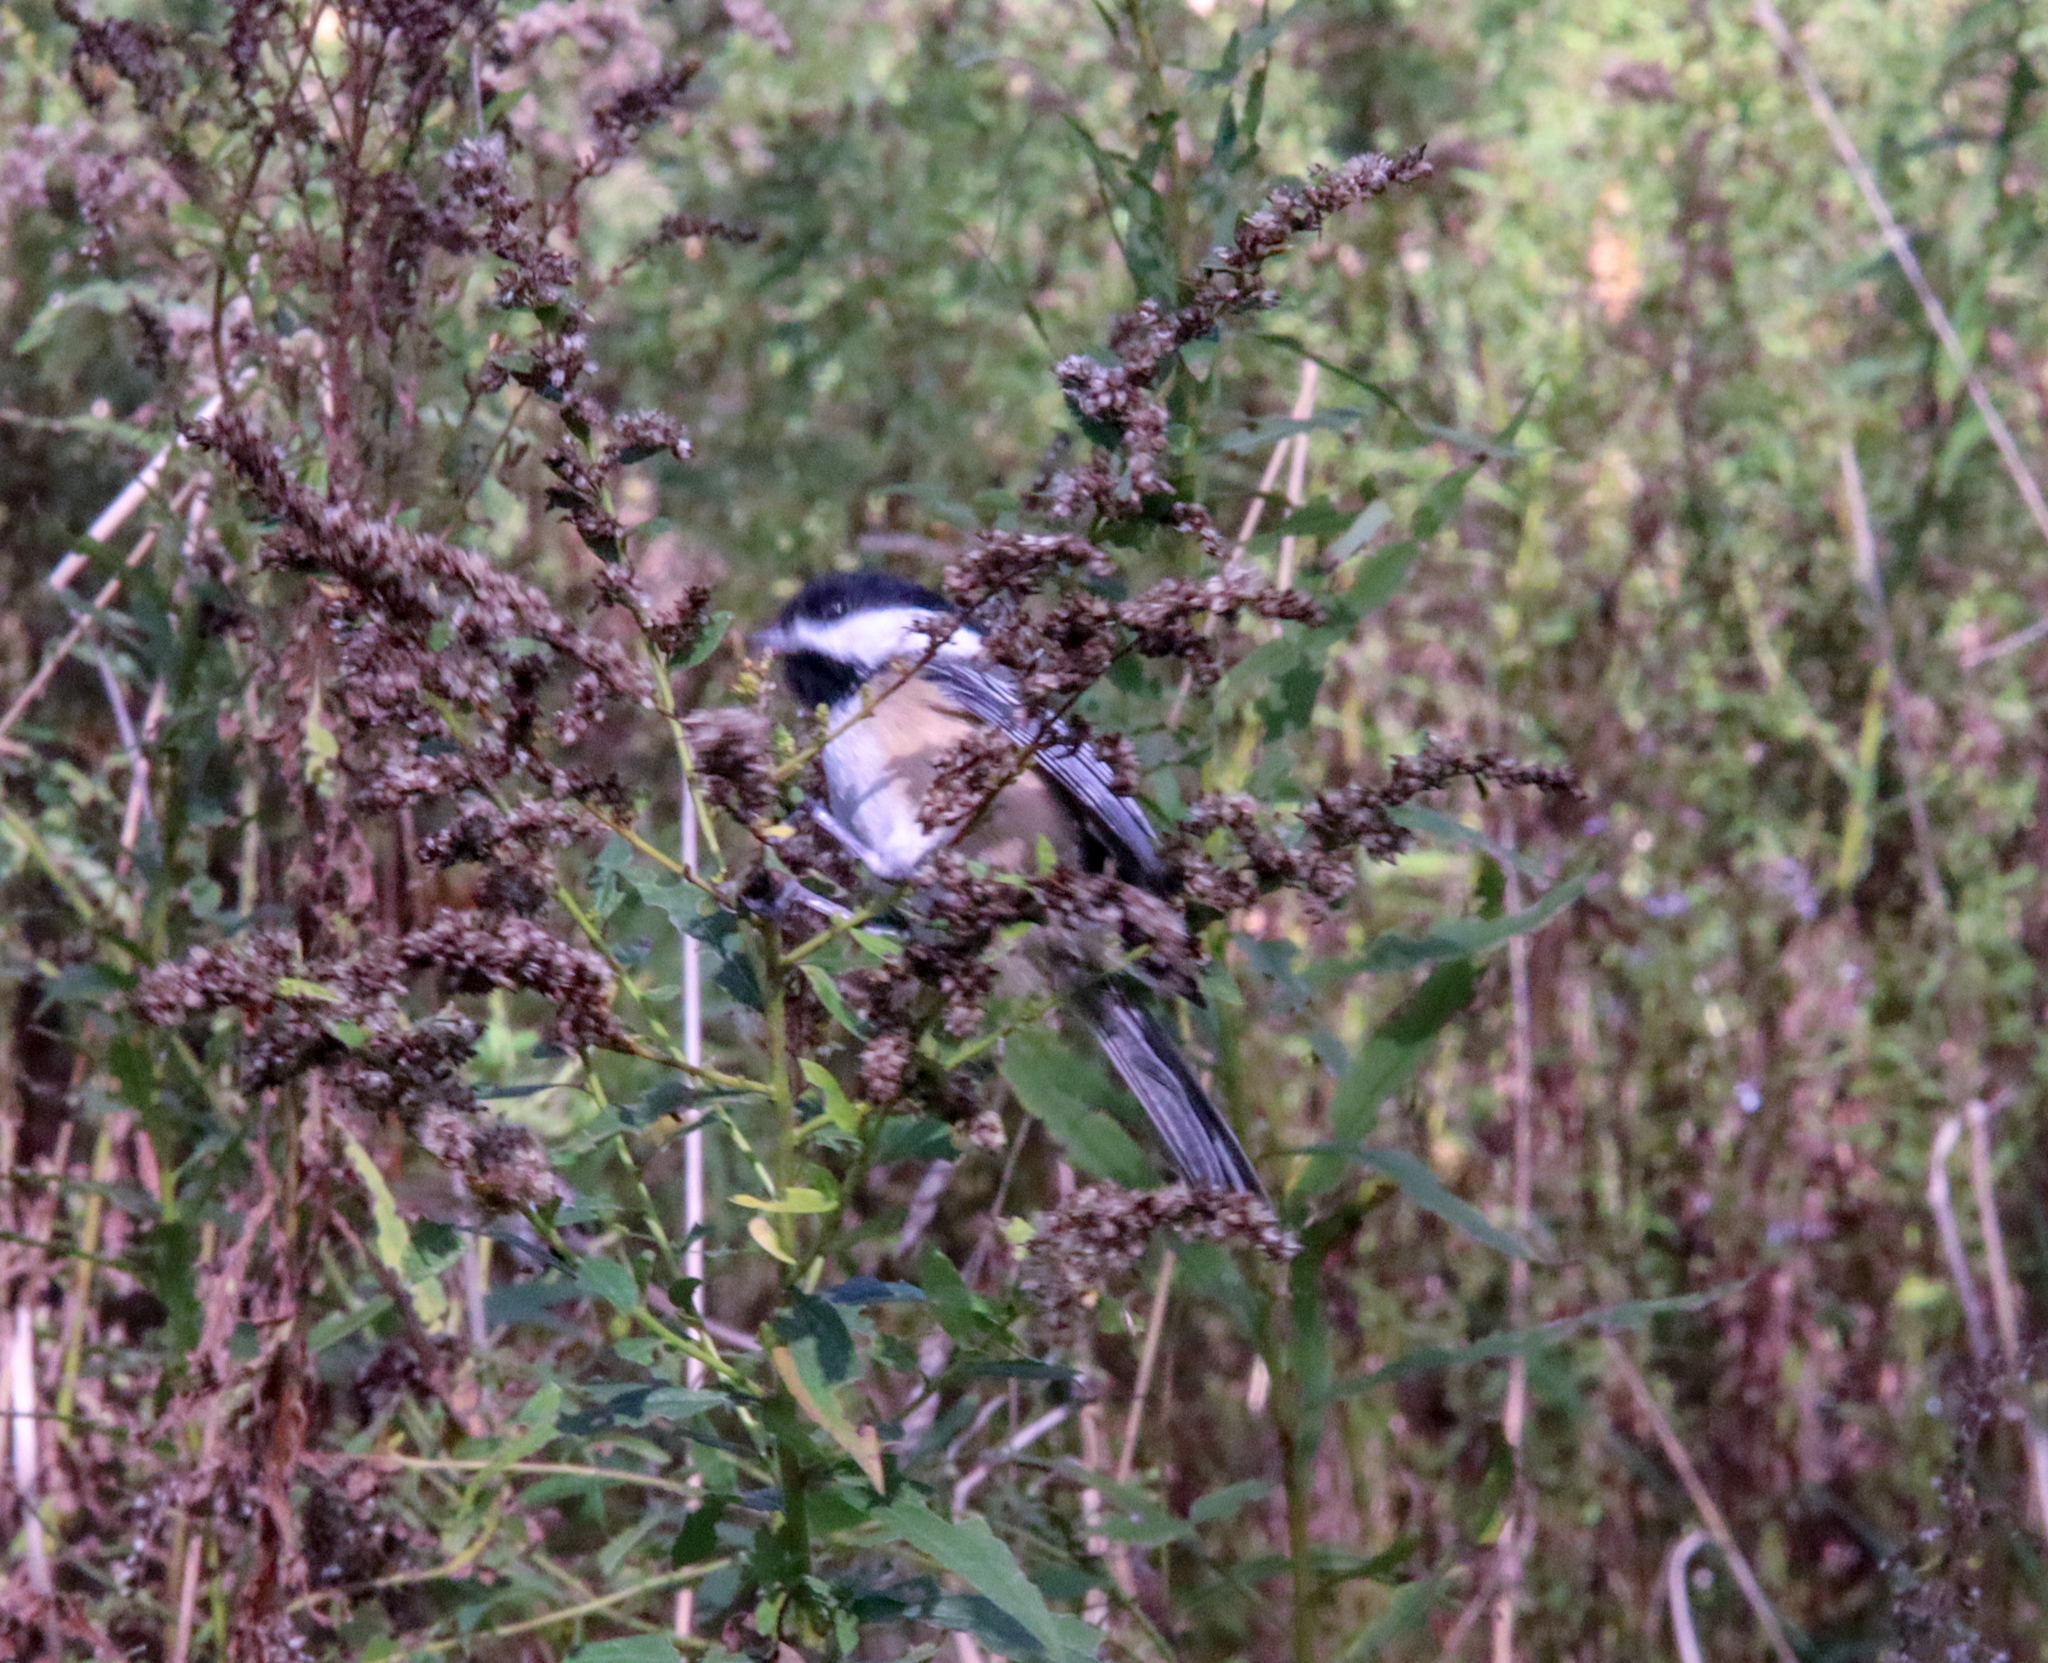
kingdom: Animalia
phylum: Chordata
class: Aves
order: Passeriformes
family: Paridae
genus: Poecile
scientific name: Poecile atricapillus
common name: Black-capped chickadee
